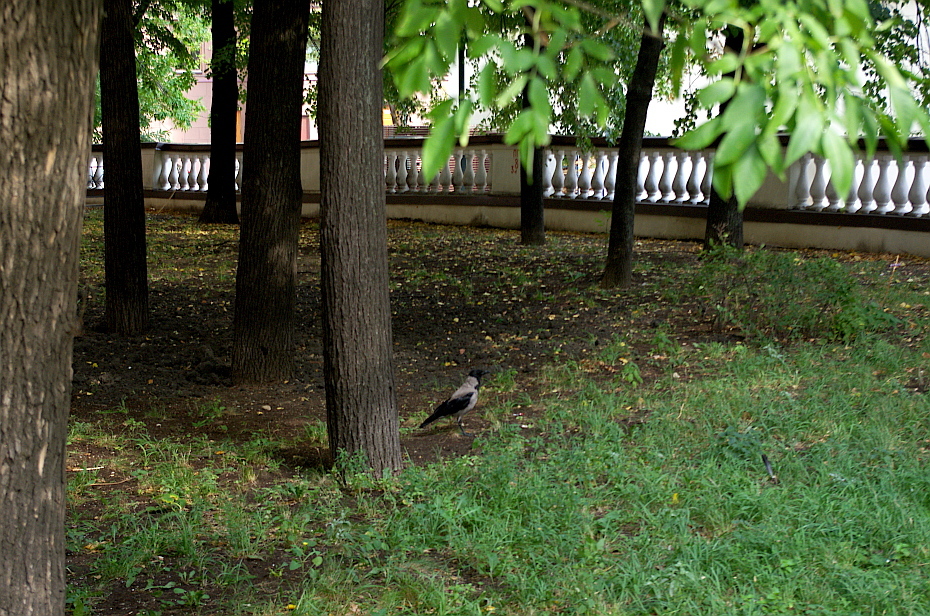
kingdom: Animalia
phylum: Chordata
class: Aves
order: Passeriformes
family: Corvidae
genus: Corvus
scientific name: Corvus cornix
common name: Hooded crow
